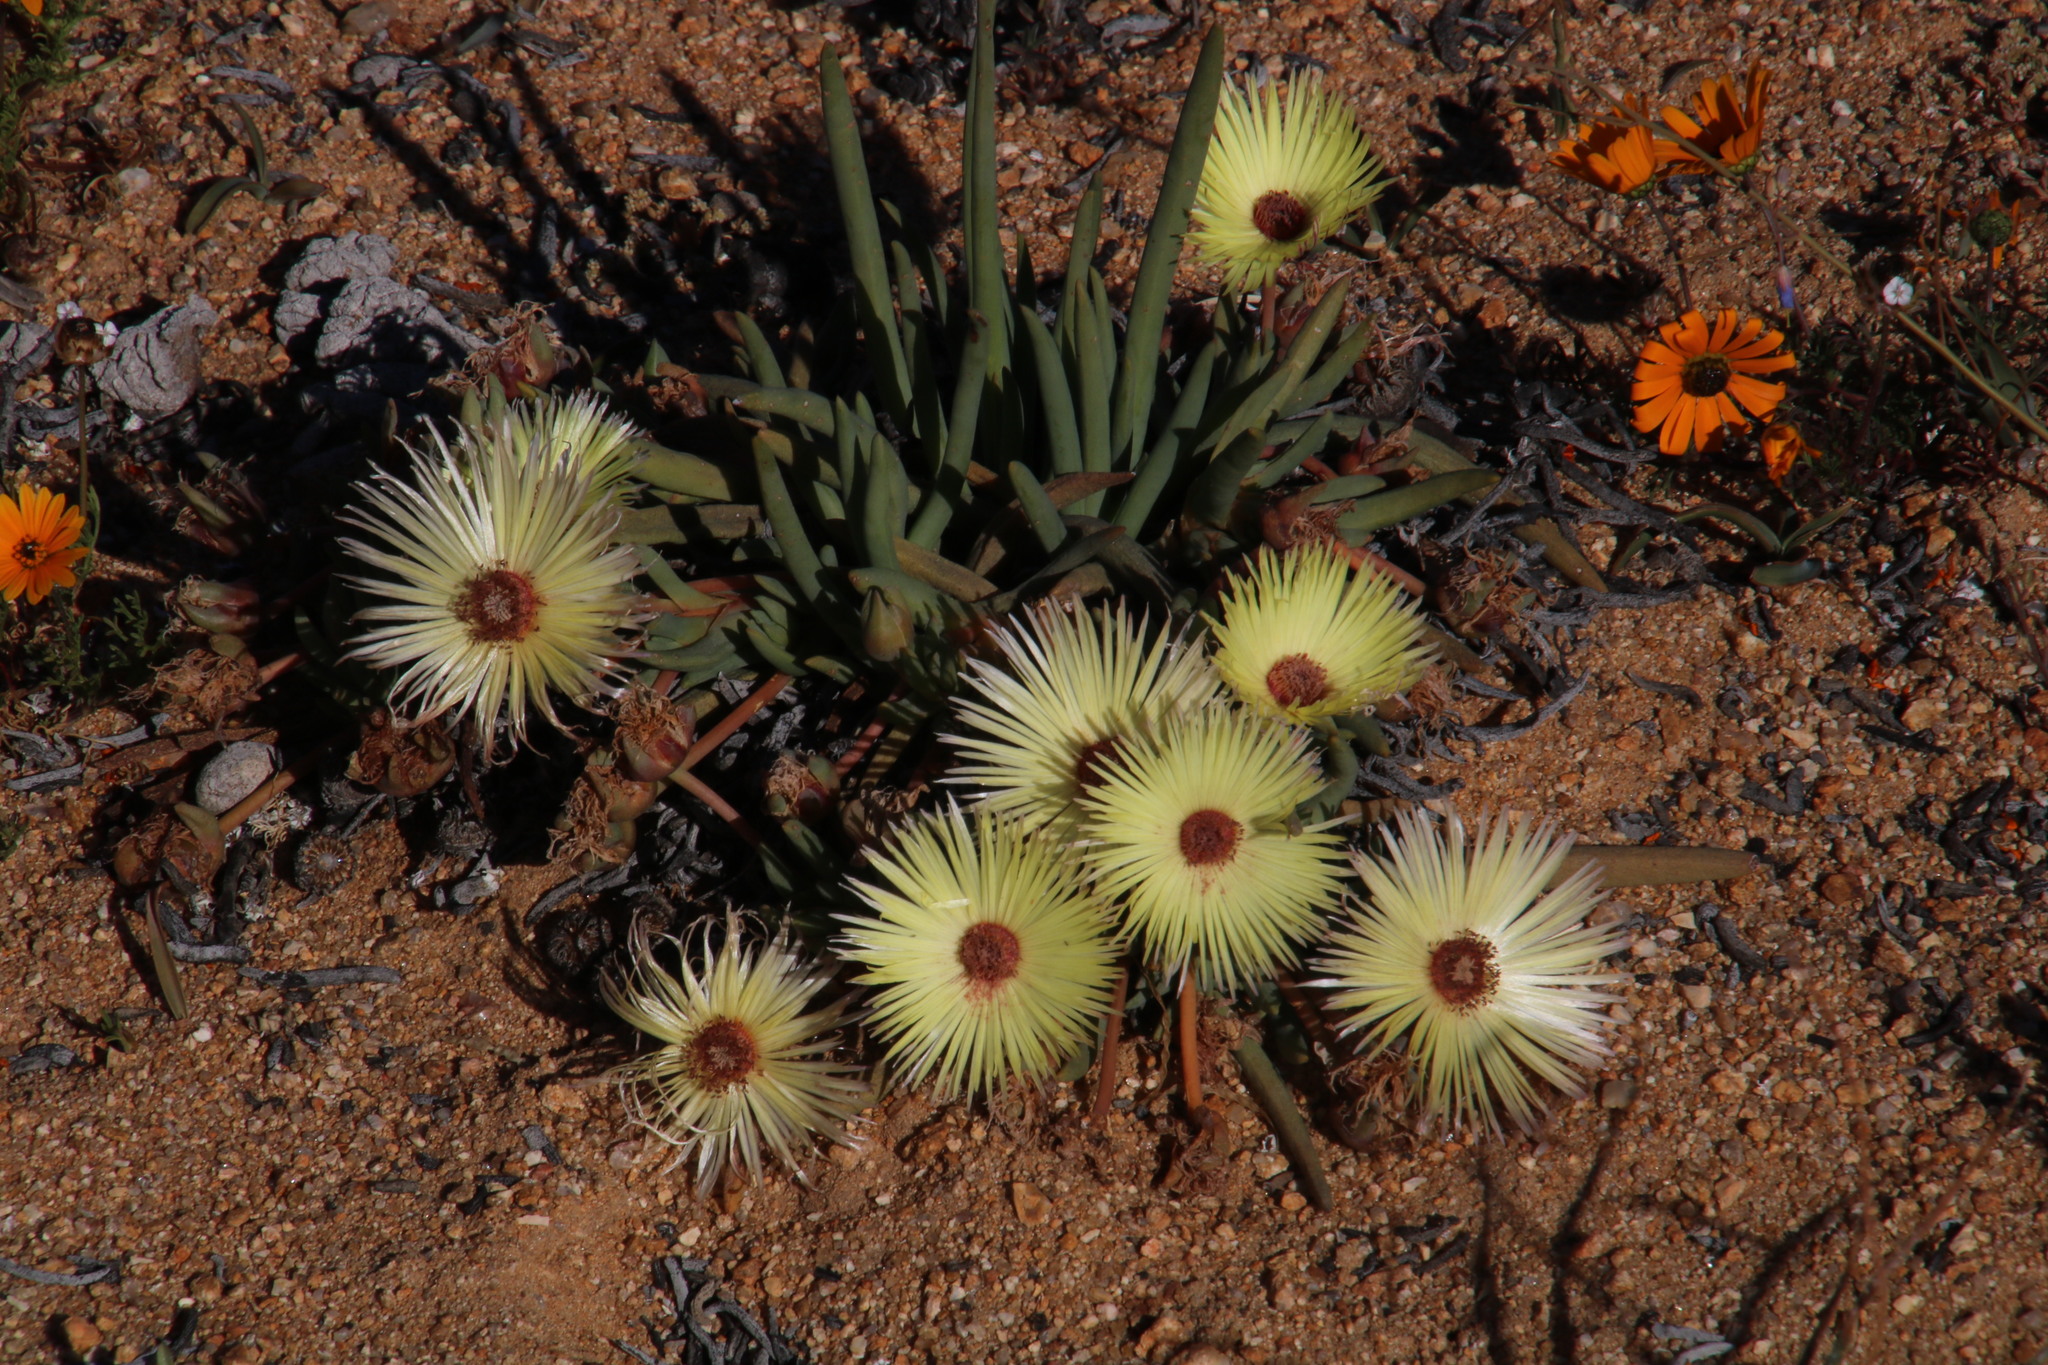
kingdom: Plantae
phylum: Tracheophyta
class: Magnoliopsida
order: Caryophyllales
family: Aizoaceae
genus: Cephalophyllum
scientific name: Cephalophyllum pillansii
